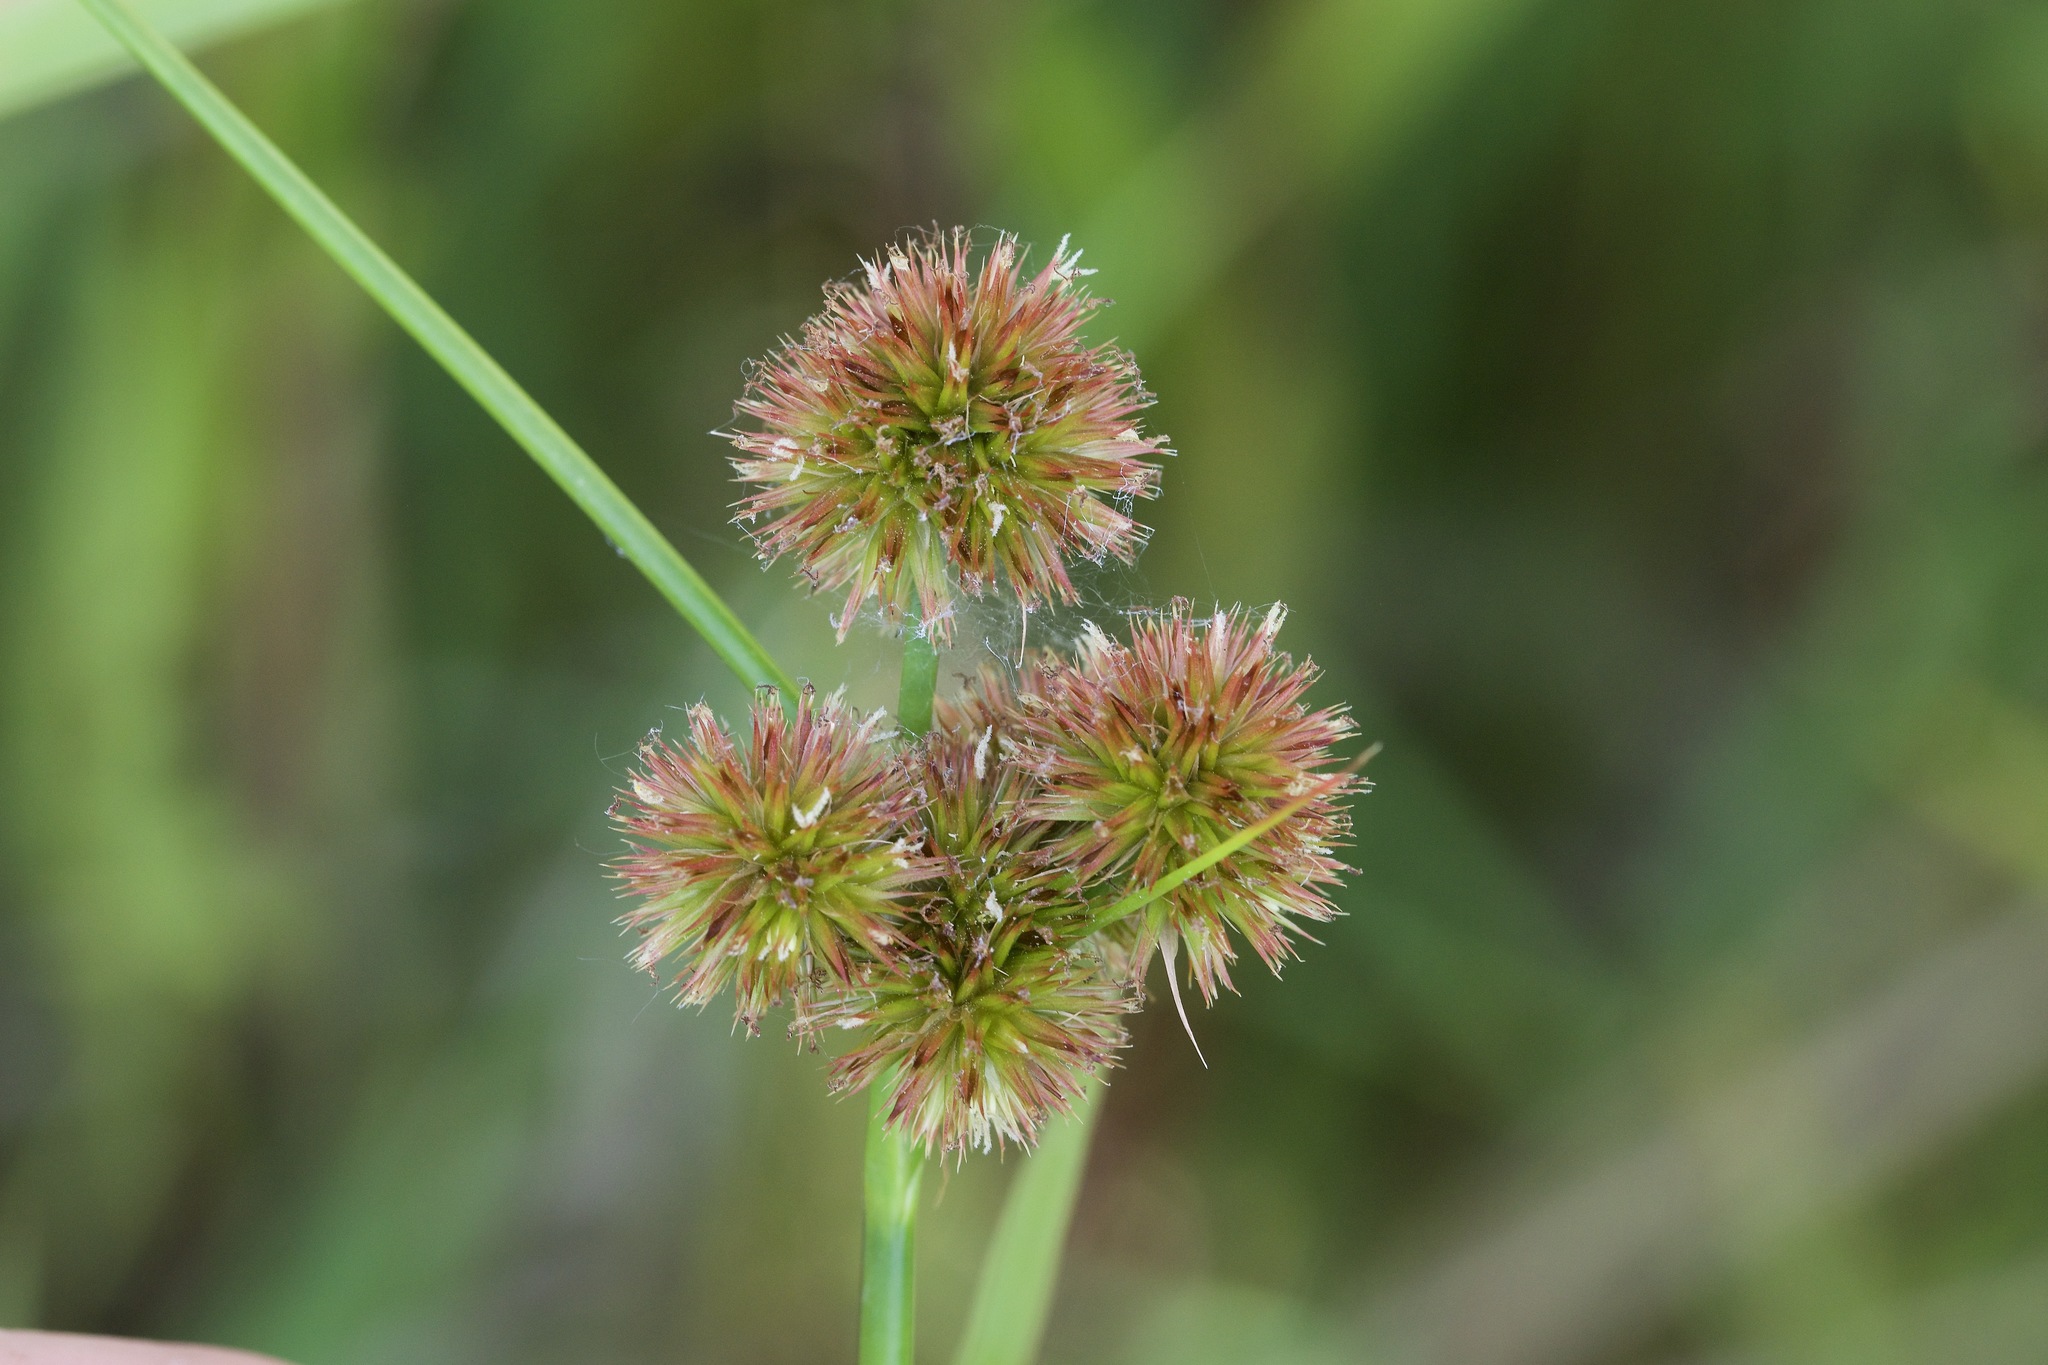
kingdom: Plantae
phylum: Tracheophyta
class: Liliopsida
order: Poales
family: Juncaceae
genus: Juncus
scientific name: Juncus torreyi
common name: Torrey's rush
